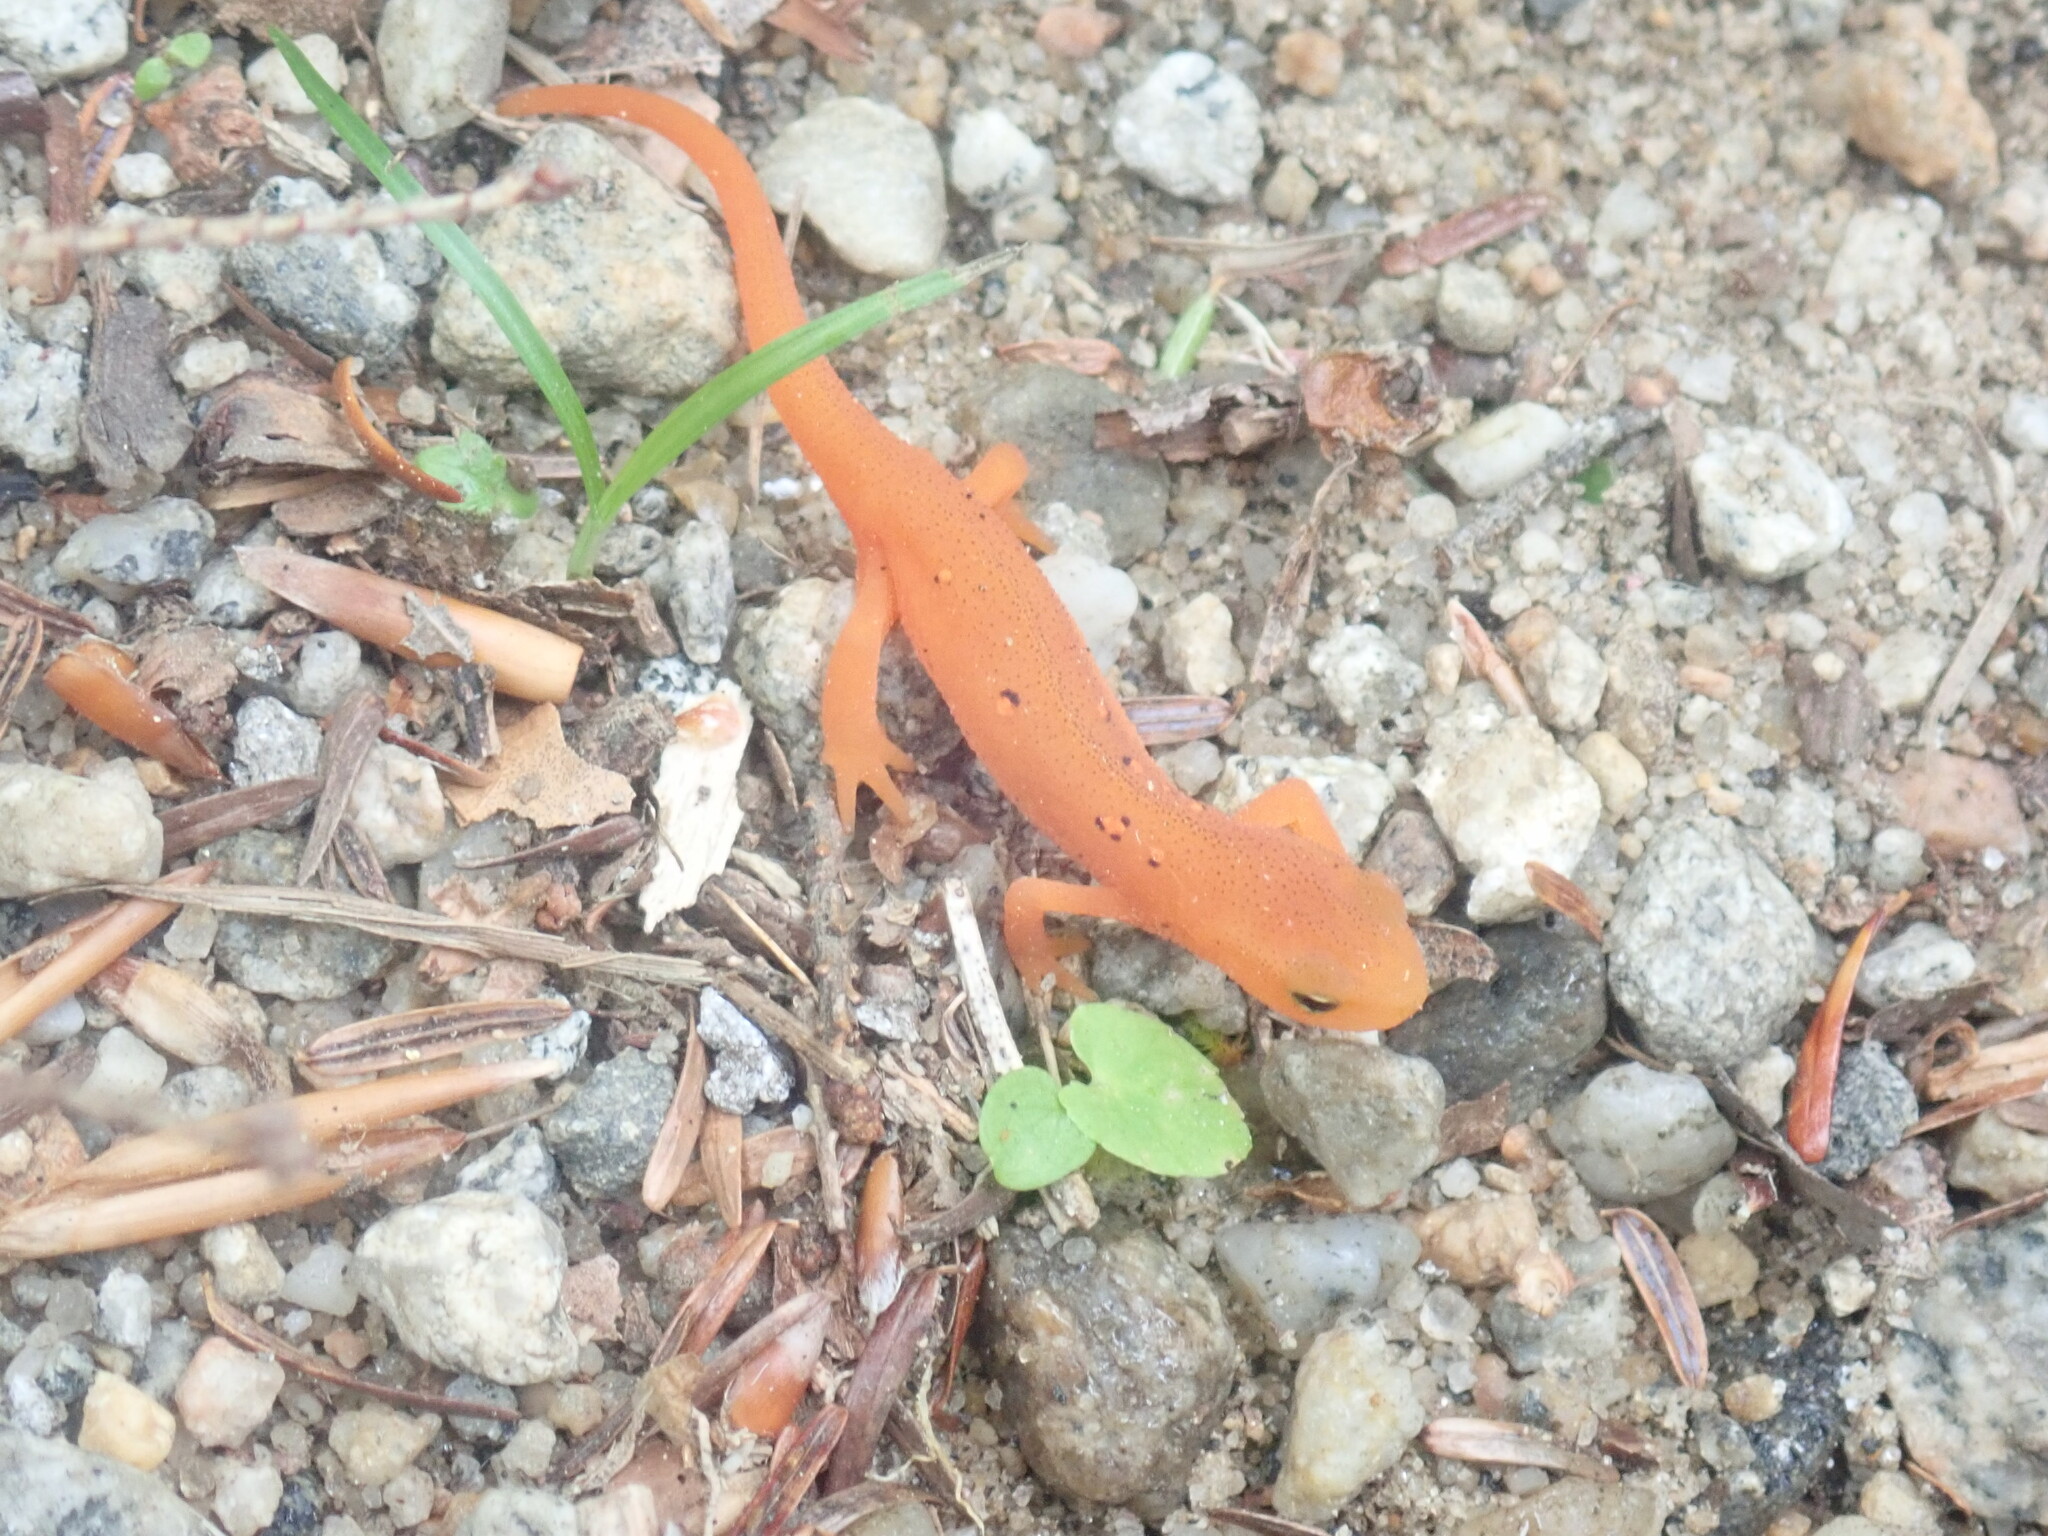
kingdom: Animalia
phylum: Chordata
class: Amphibia
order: Caudata
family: Salamandridae
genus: Notophthalmus
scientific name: Notophthalmus viridescens
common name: Eastern newt
